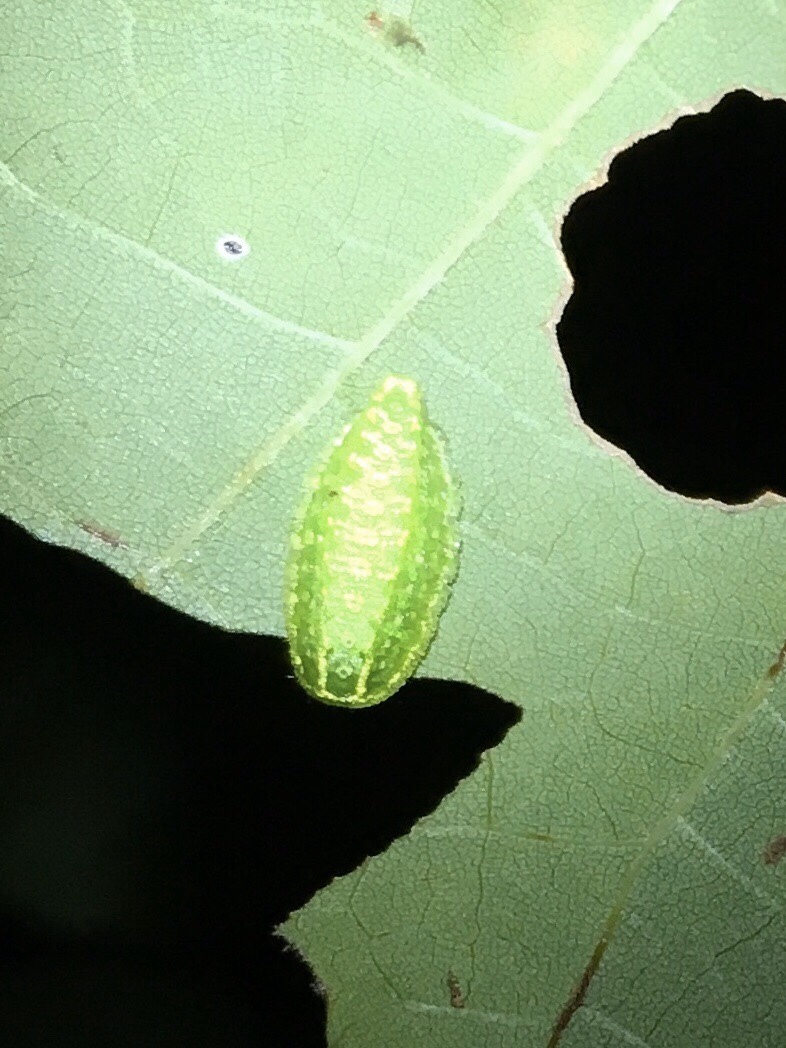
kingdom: Animalia
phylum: Arthropoda
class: Insecta
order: Lepidoptera
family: Limacodidae
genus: Lithacodes
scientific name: Lithacodes fasciola
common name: Yellow-shouldered slug moth
